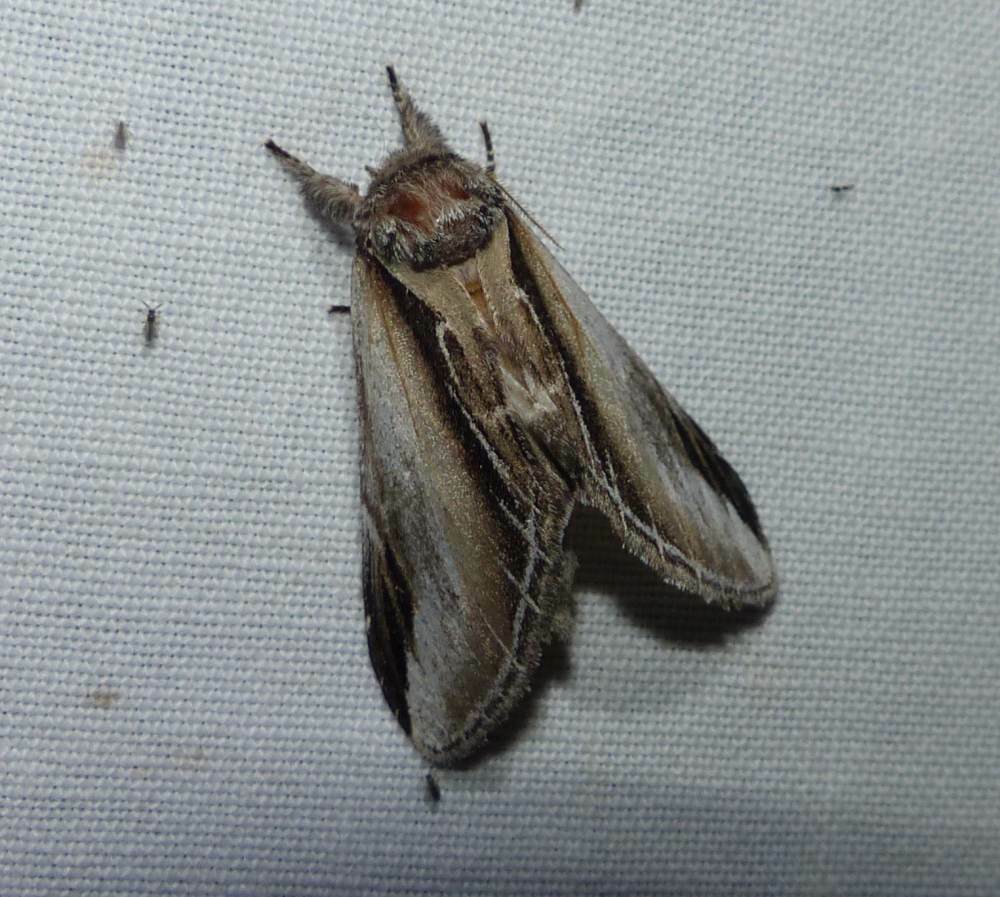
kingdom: Animalia
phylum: Arthropoda
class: Insecta
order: Lepidoptera
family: Notodontidae
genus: Pheosia
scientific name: Pheosia rimosa
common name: Black-rimmed prominent
